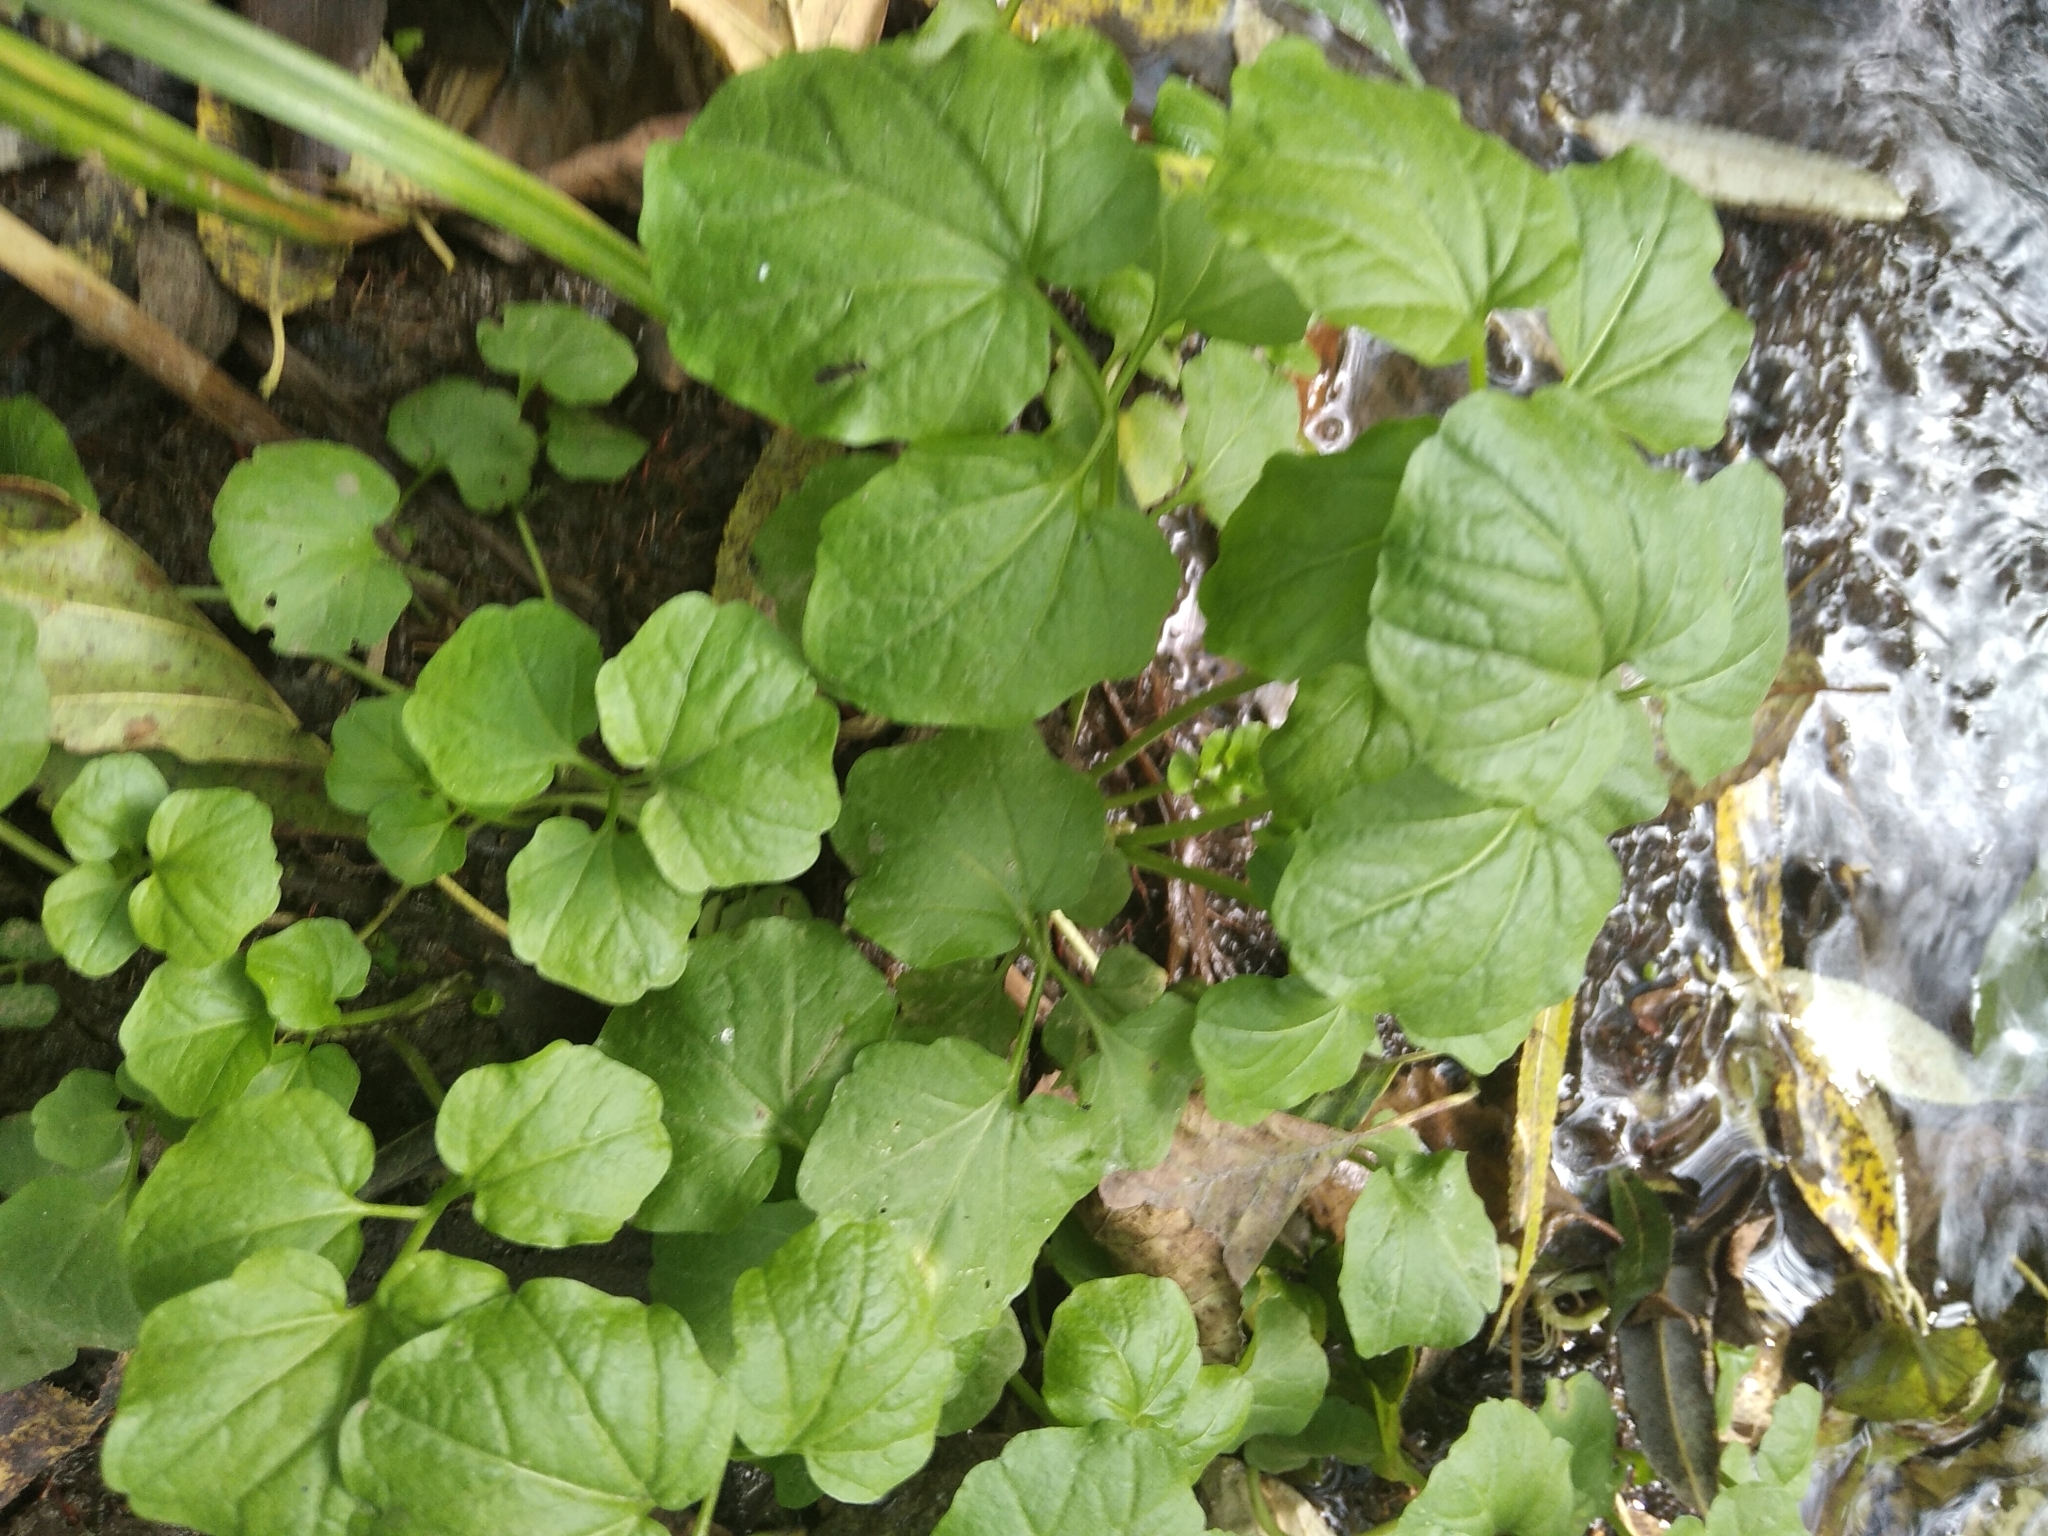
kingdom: Plantae
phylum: Tracheophyta
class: Magnoliopsida
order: Brassicales
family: Brassicaceae
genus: Cardamine
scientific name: Cardamine amara
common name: Large bitter-cress
